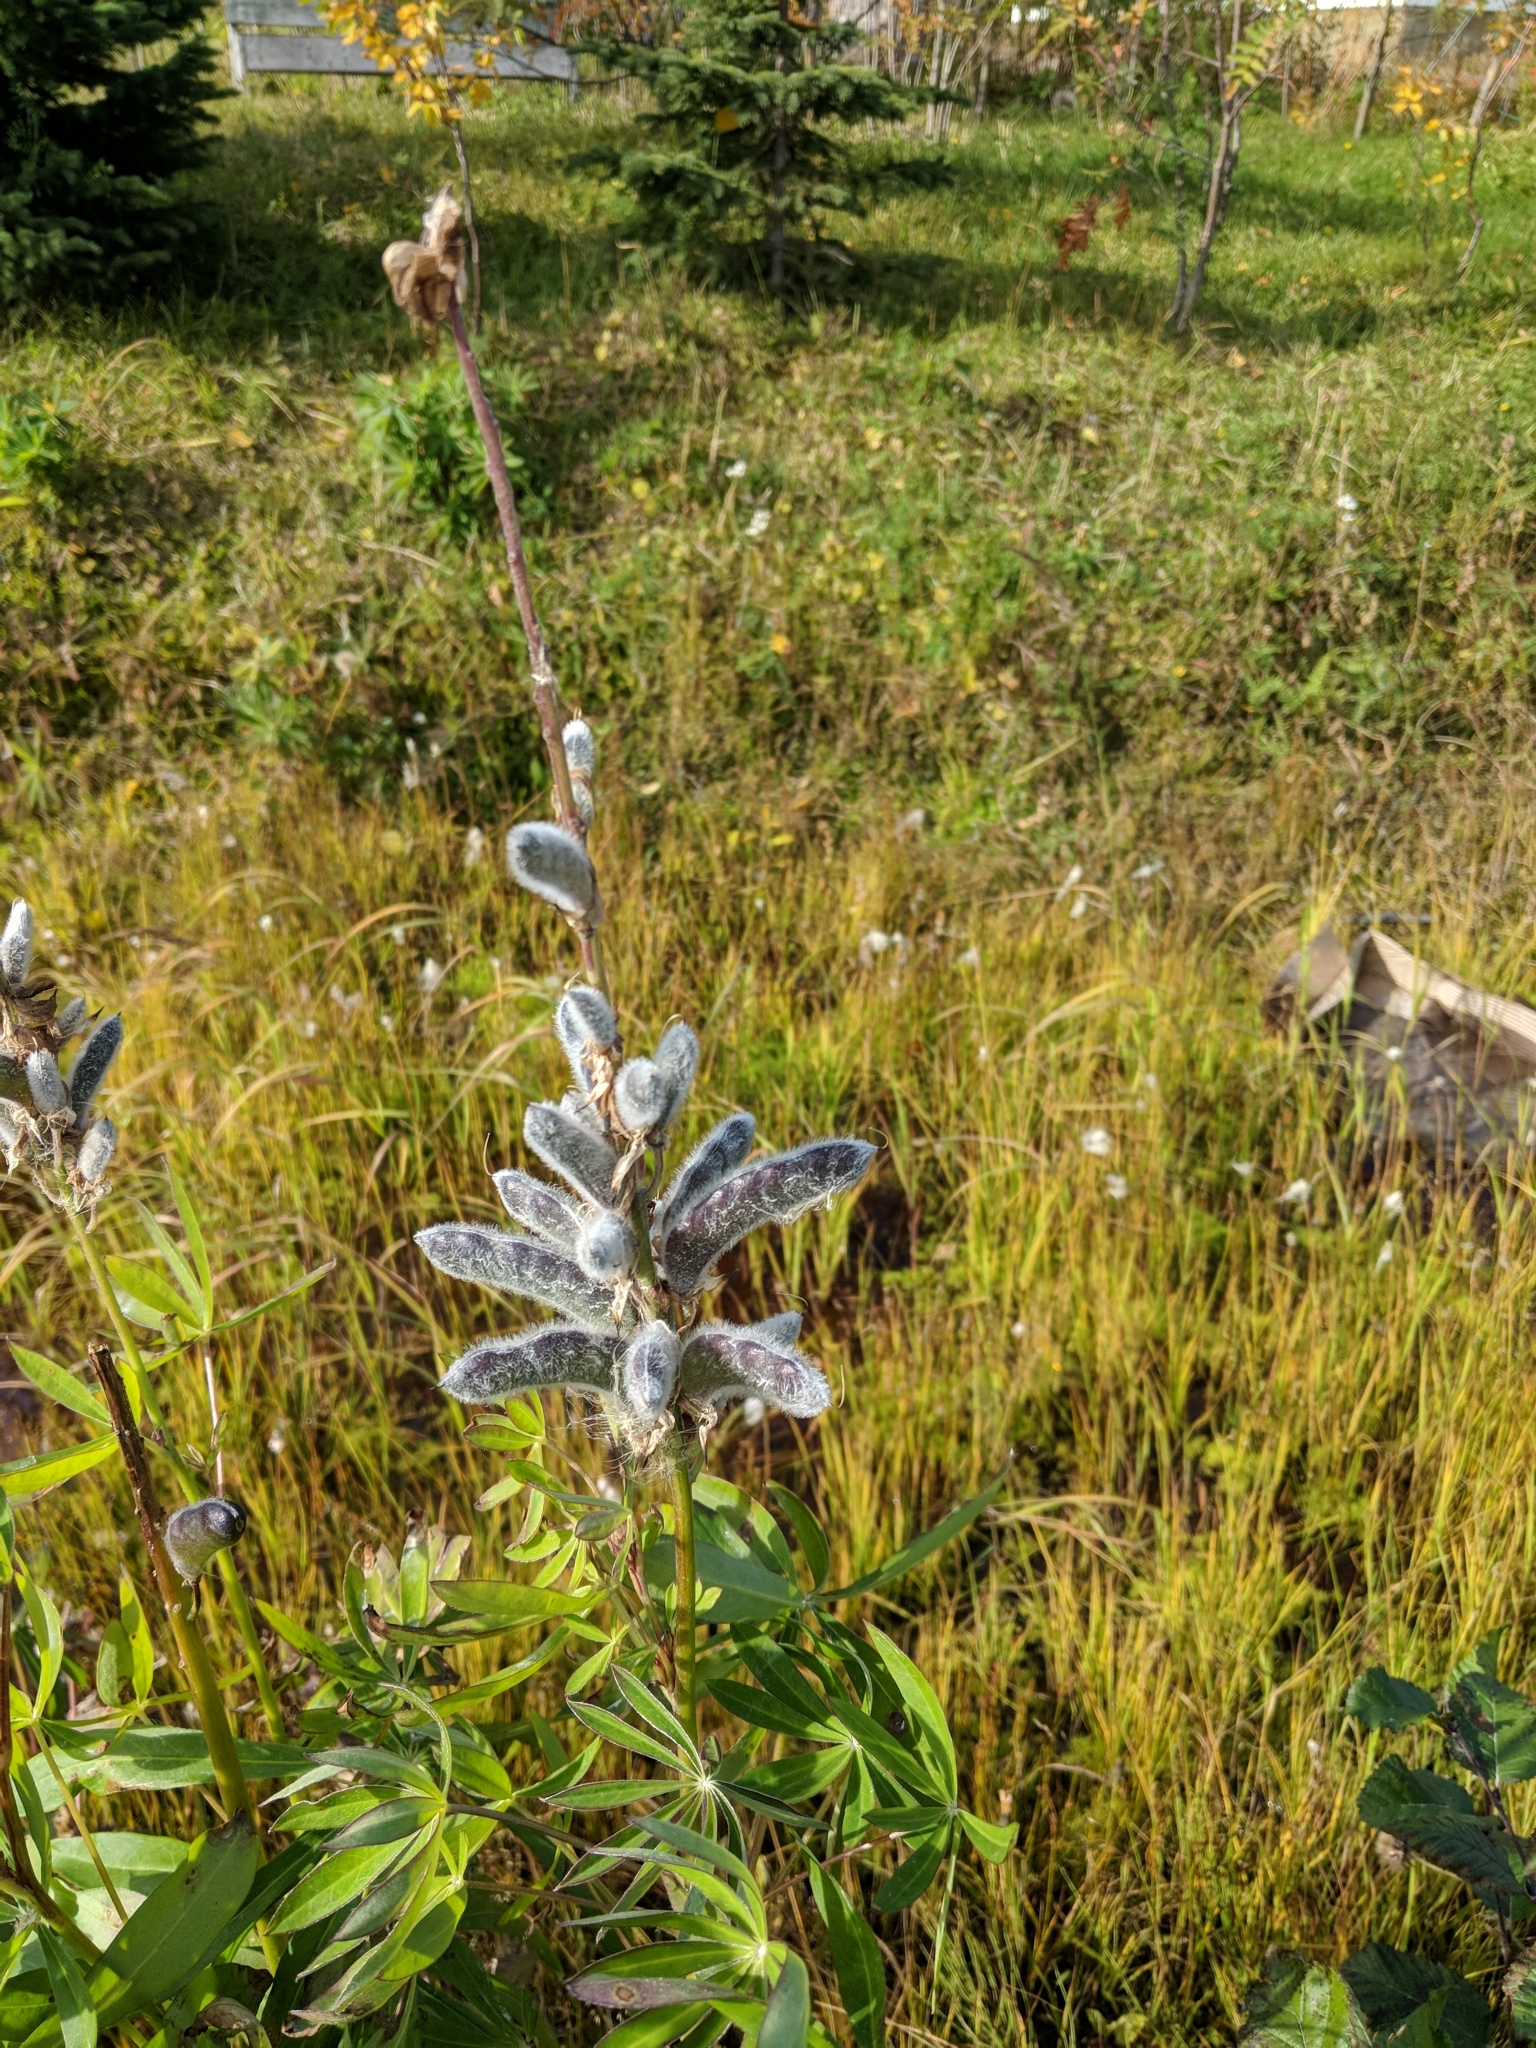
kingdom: Plantae
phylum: Tracheophyta
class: Magnoliopsida
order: Fabales
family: Fabaceae
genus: Lupinus
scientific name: Lupinus polyphyllus
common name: Garden lupin
